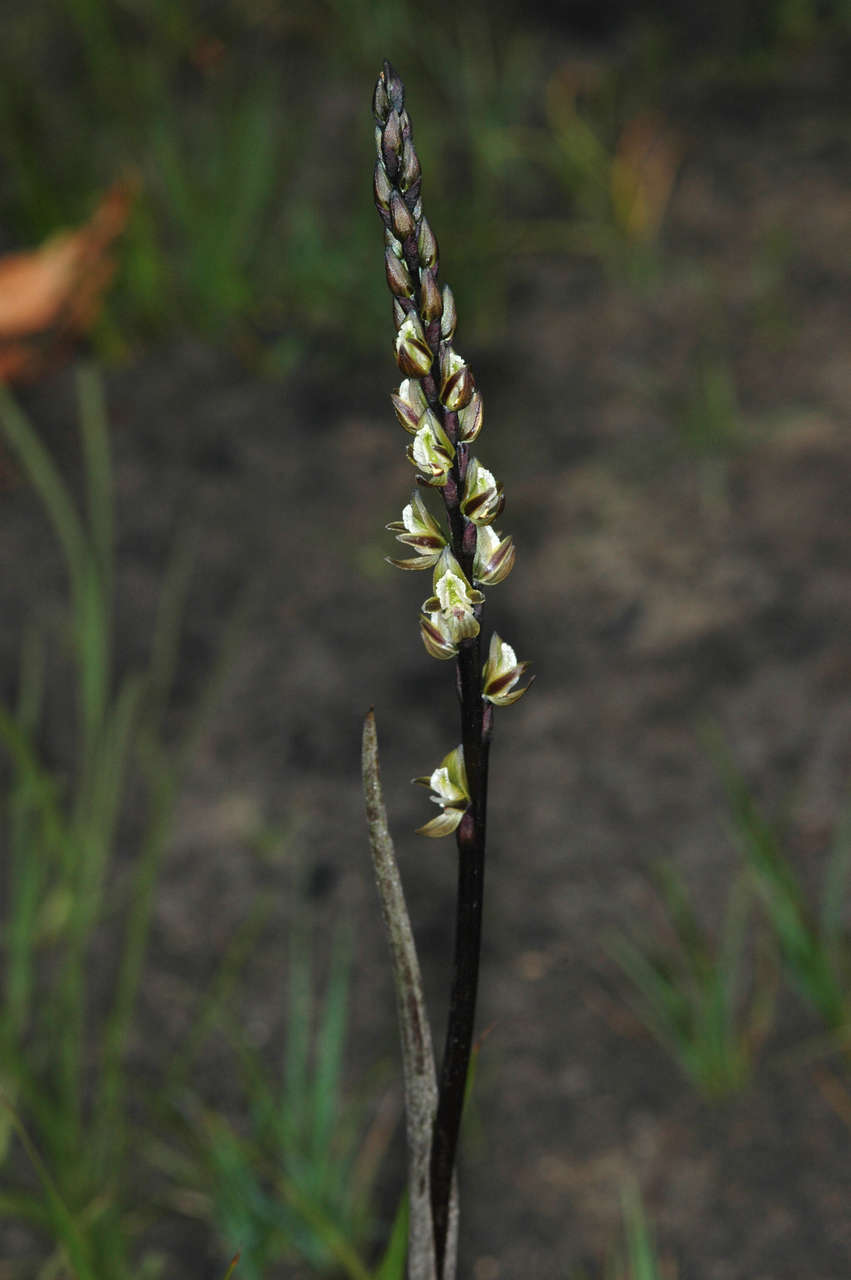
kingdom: Plantae
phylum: Tracheophyta
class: Liliopsida
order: Asparagales
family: Orchidaceae
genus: Prasophyllum
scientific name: Prasophyllum elatum
